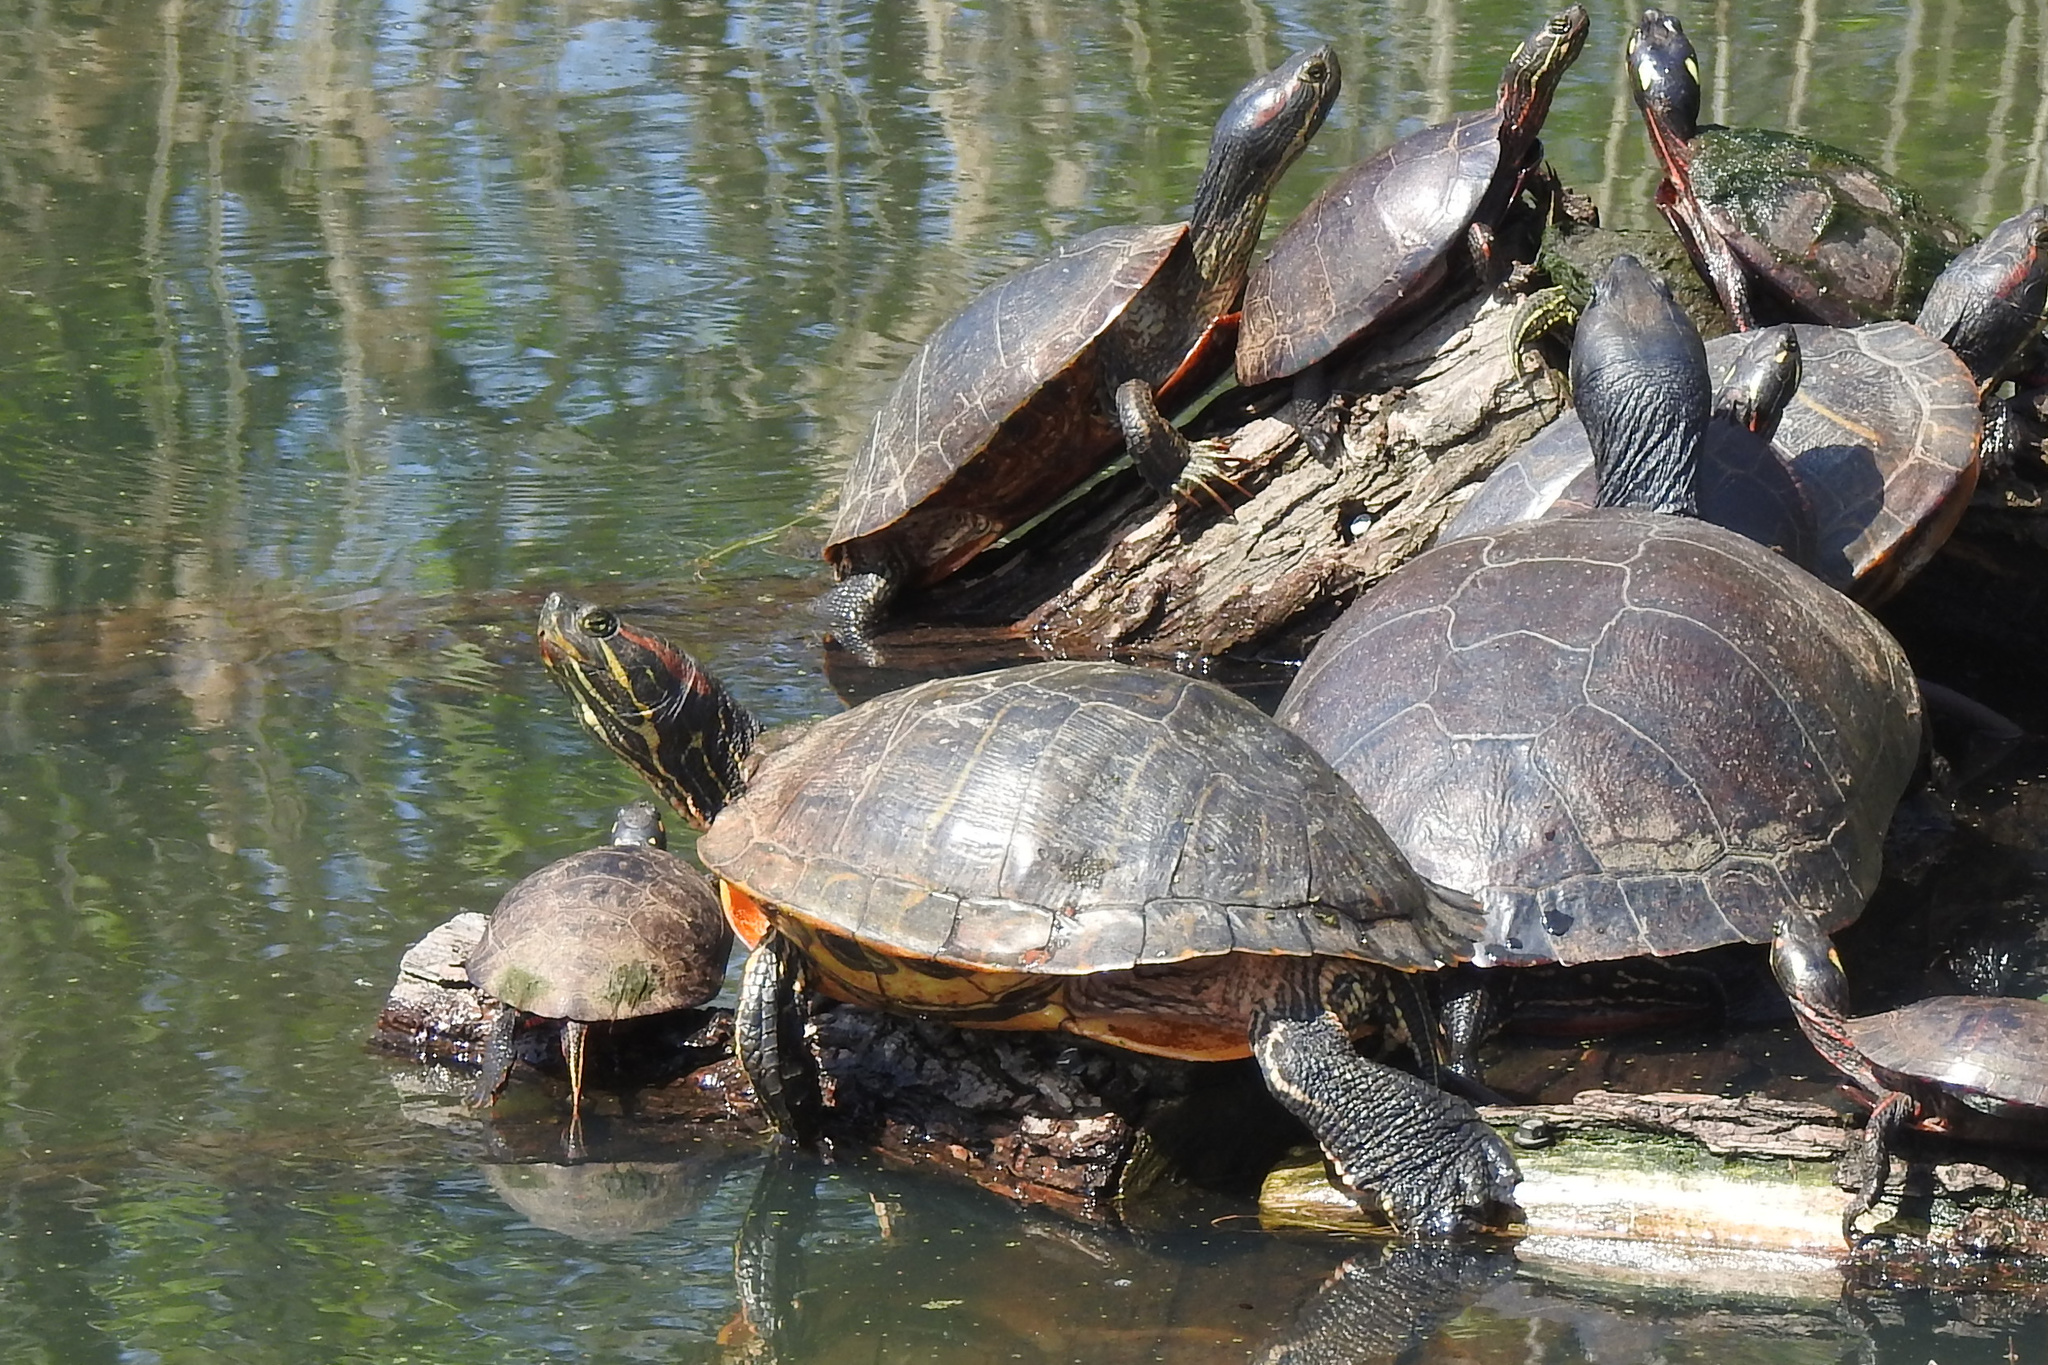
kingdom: Animalia
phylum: Chordata
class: Testudines
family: Emydidae
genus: Trachemys
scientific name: Trachemys scripta
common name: Slider
